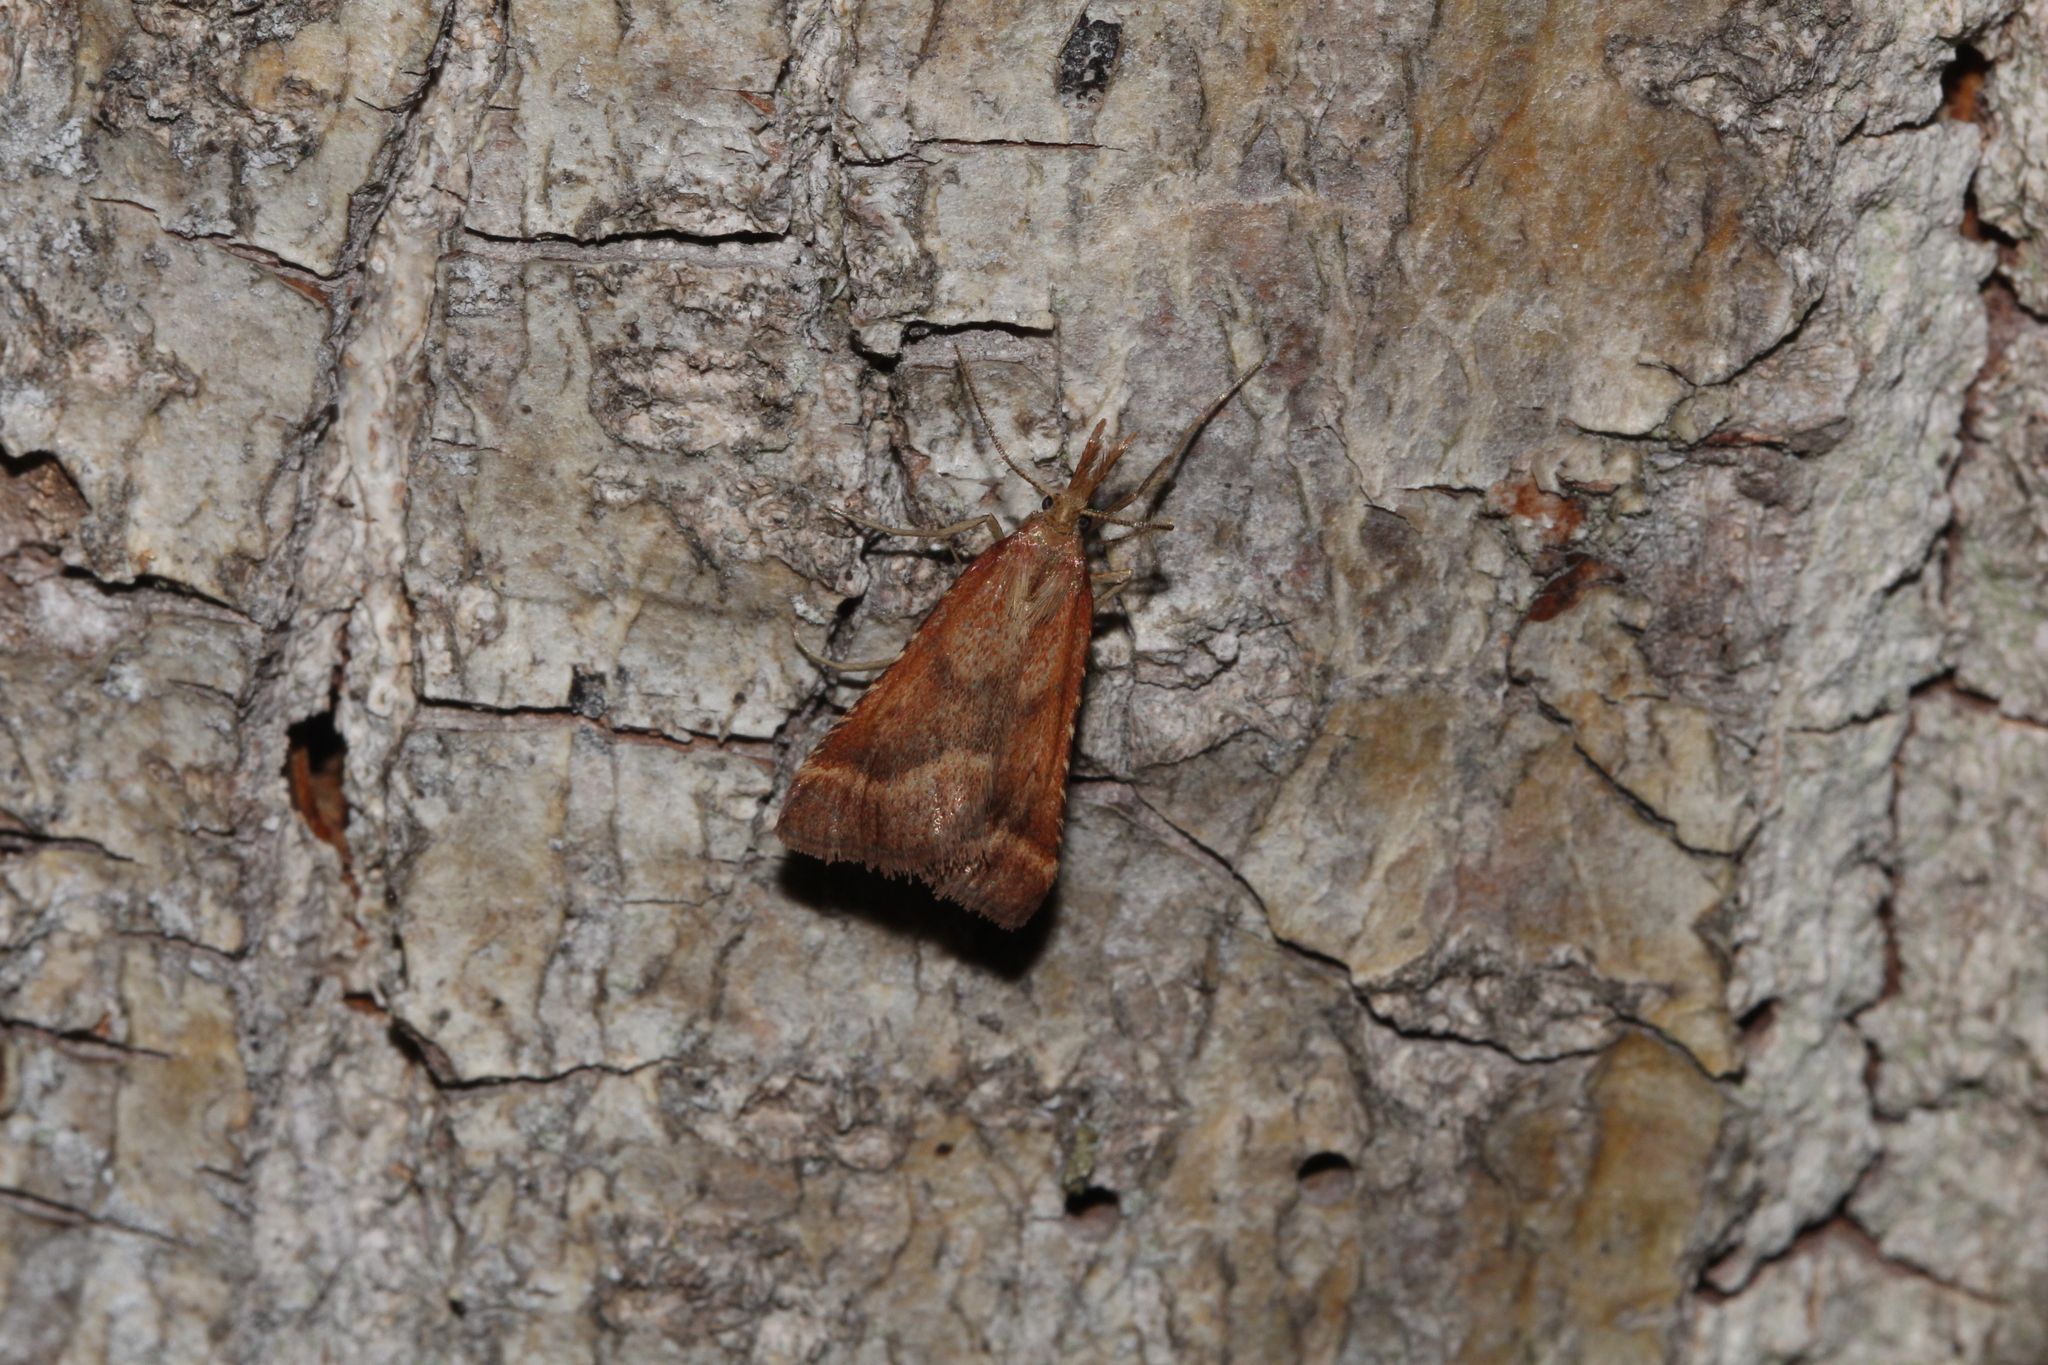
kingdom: Animalia
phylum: Arthropoda
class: Insecta
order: Lepidoptera
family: Pyralidae
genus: Synaphe
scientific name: Synaphe punctalis
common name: Long-legged tabby
